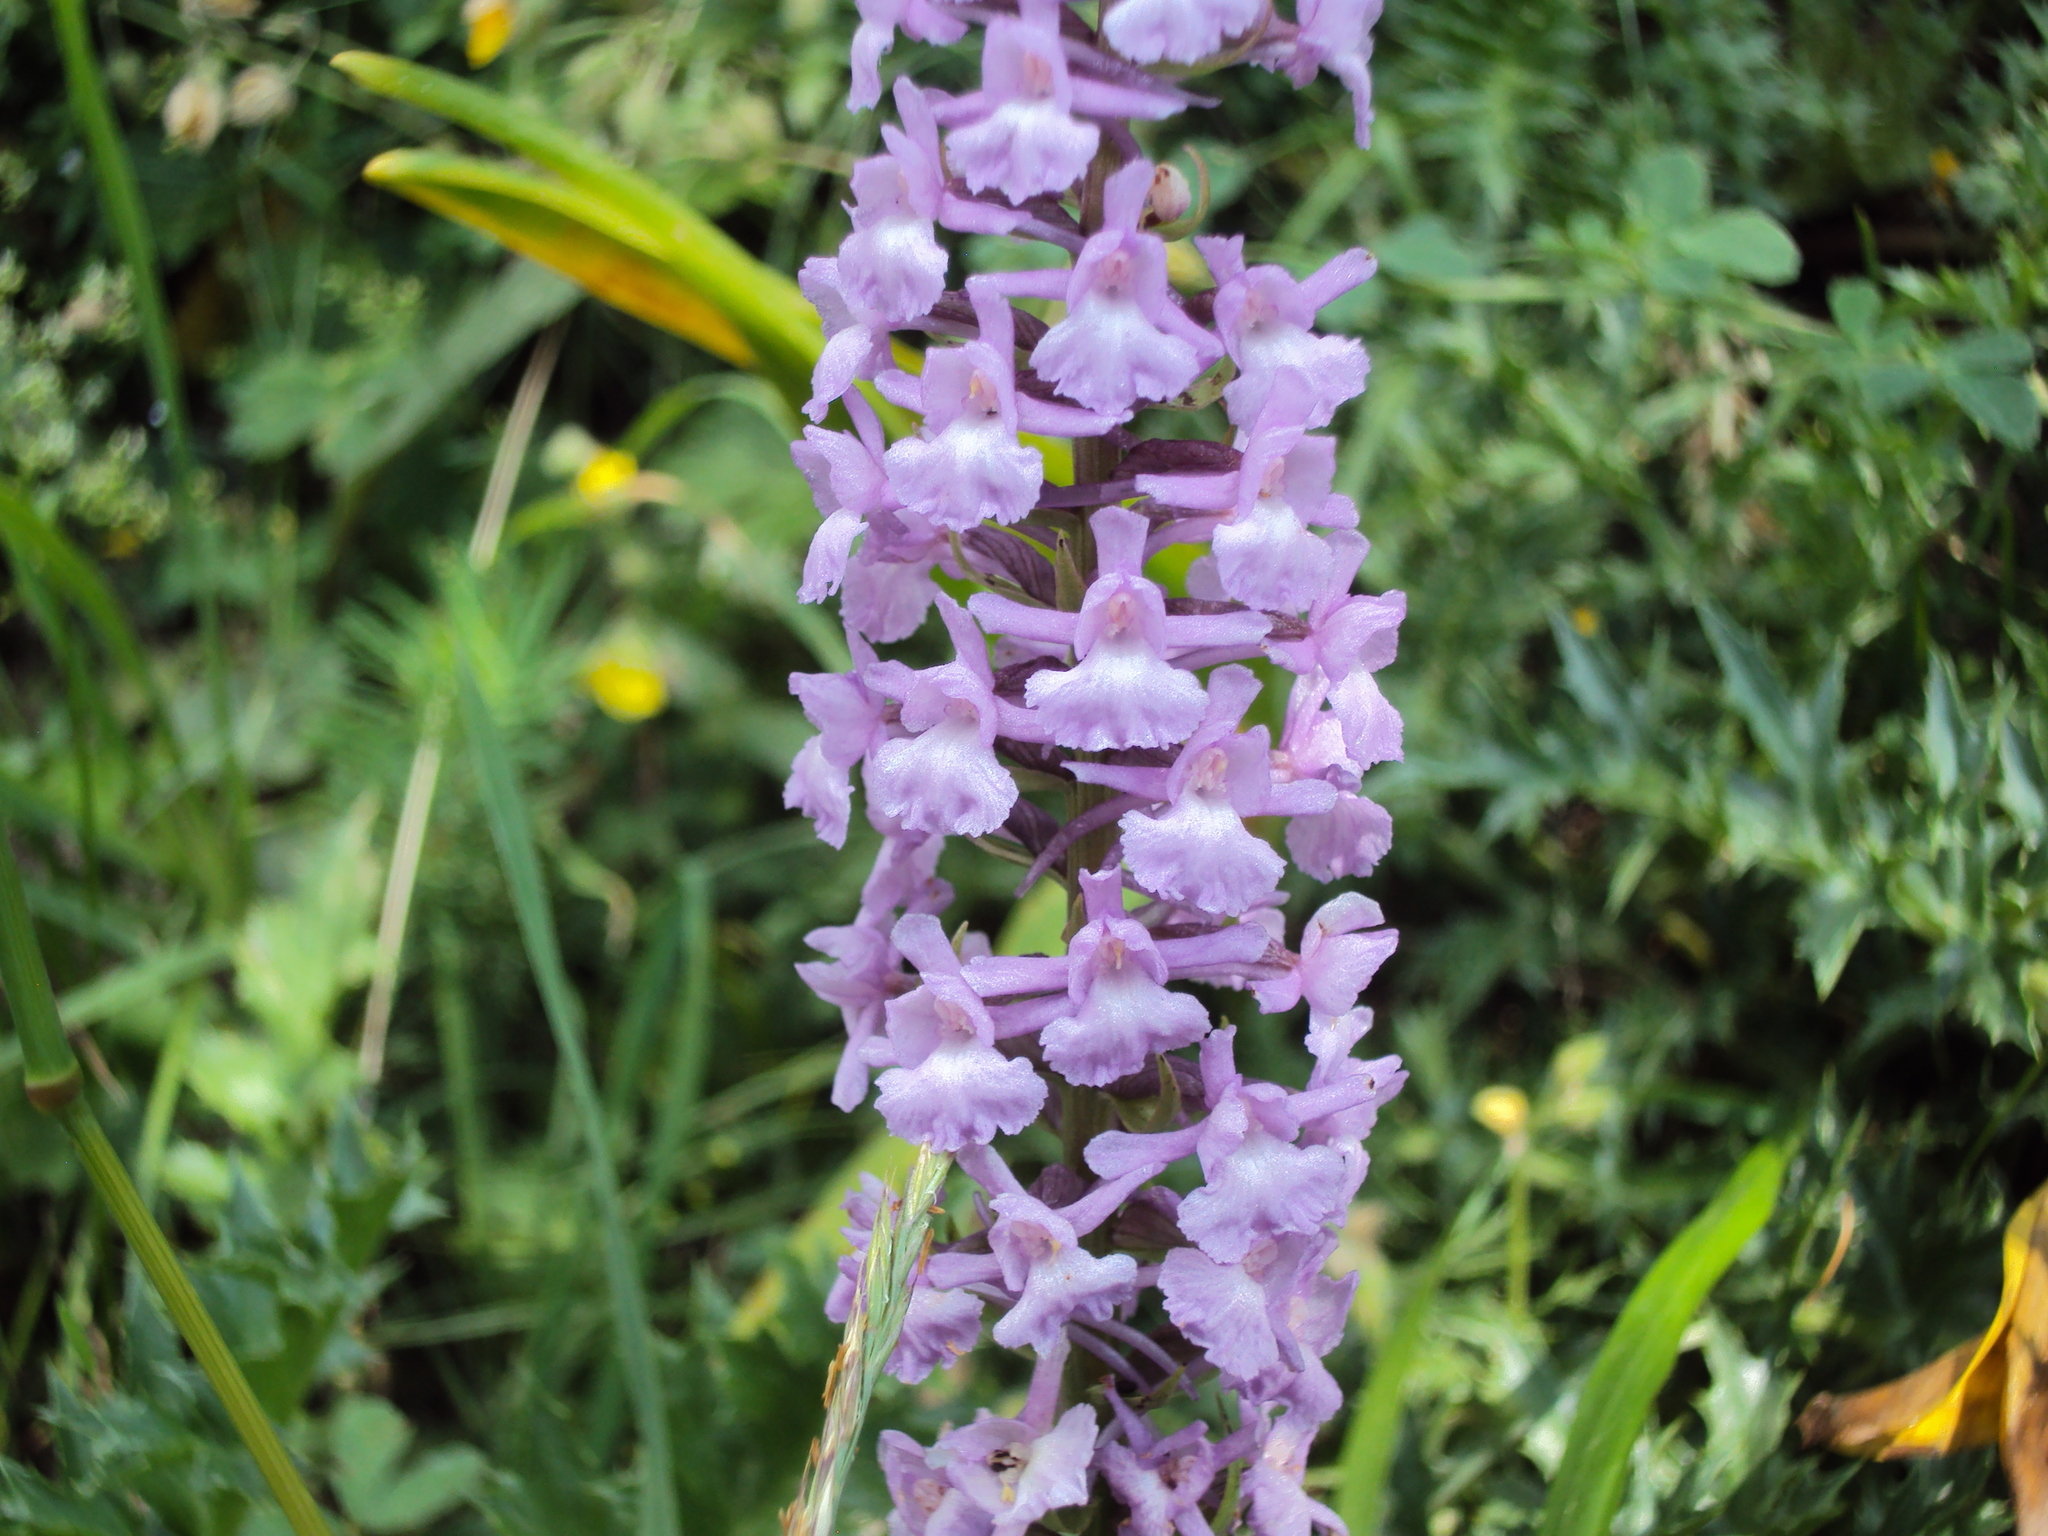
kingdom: Plantae
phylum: Tracheophyta
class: Liliopsida
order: Asparagales
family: Orchidaceae
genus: Gymnadenia
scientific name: Gymnadenia conopsea
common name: Fragrant orchid
